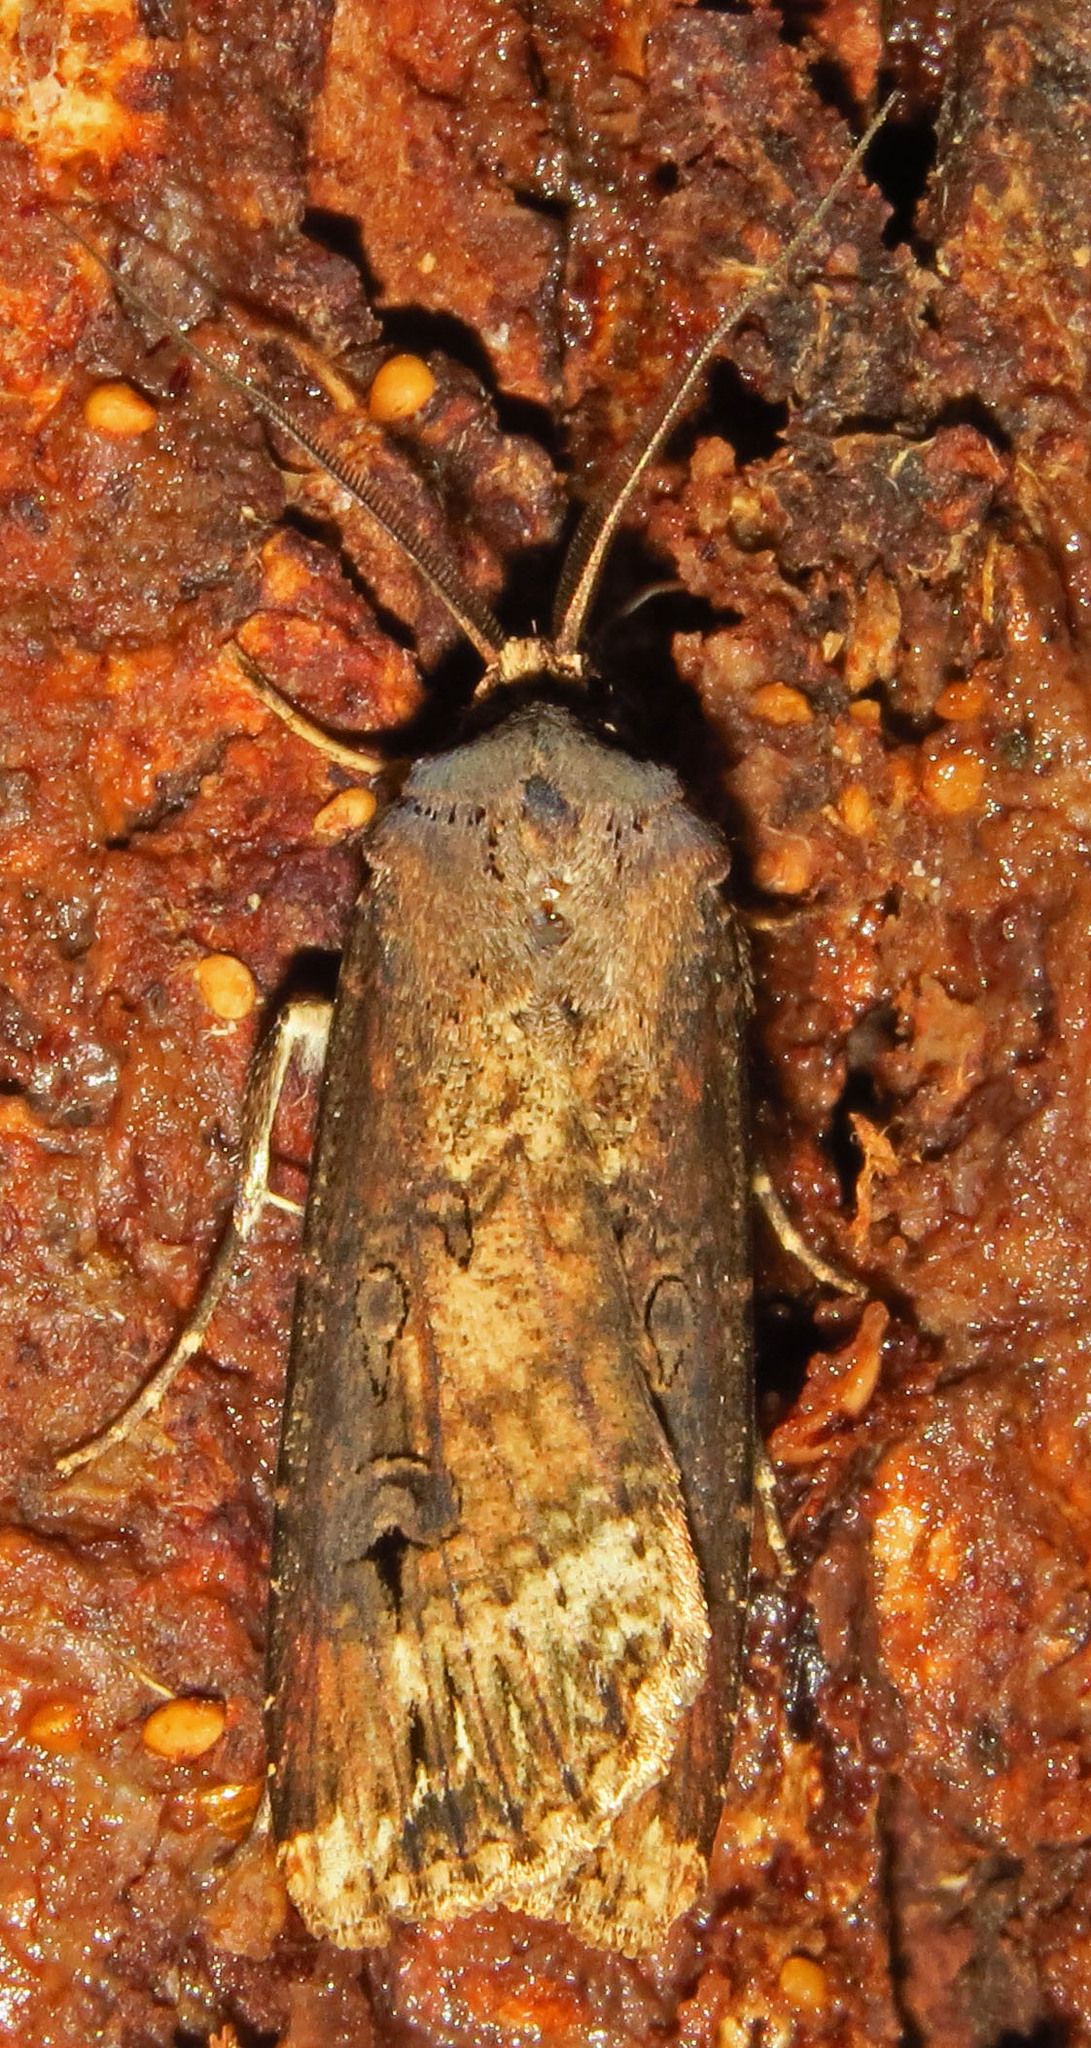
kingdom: Animalia
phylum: Arthropoda
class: Insecta
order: Lepidoptera
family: Noctuidae
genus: Agrotis
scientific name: Agrotis ipsilon
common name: Dark sword-grass
